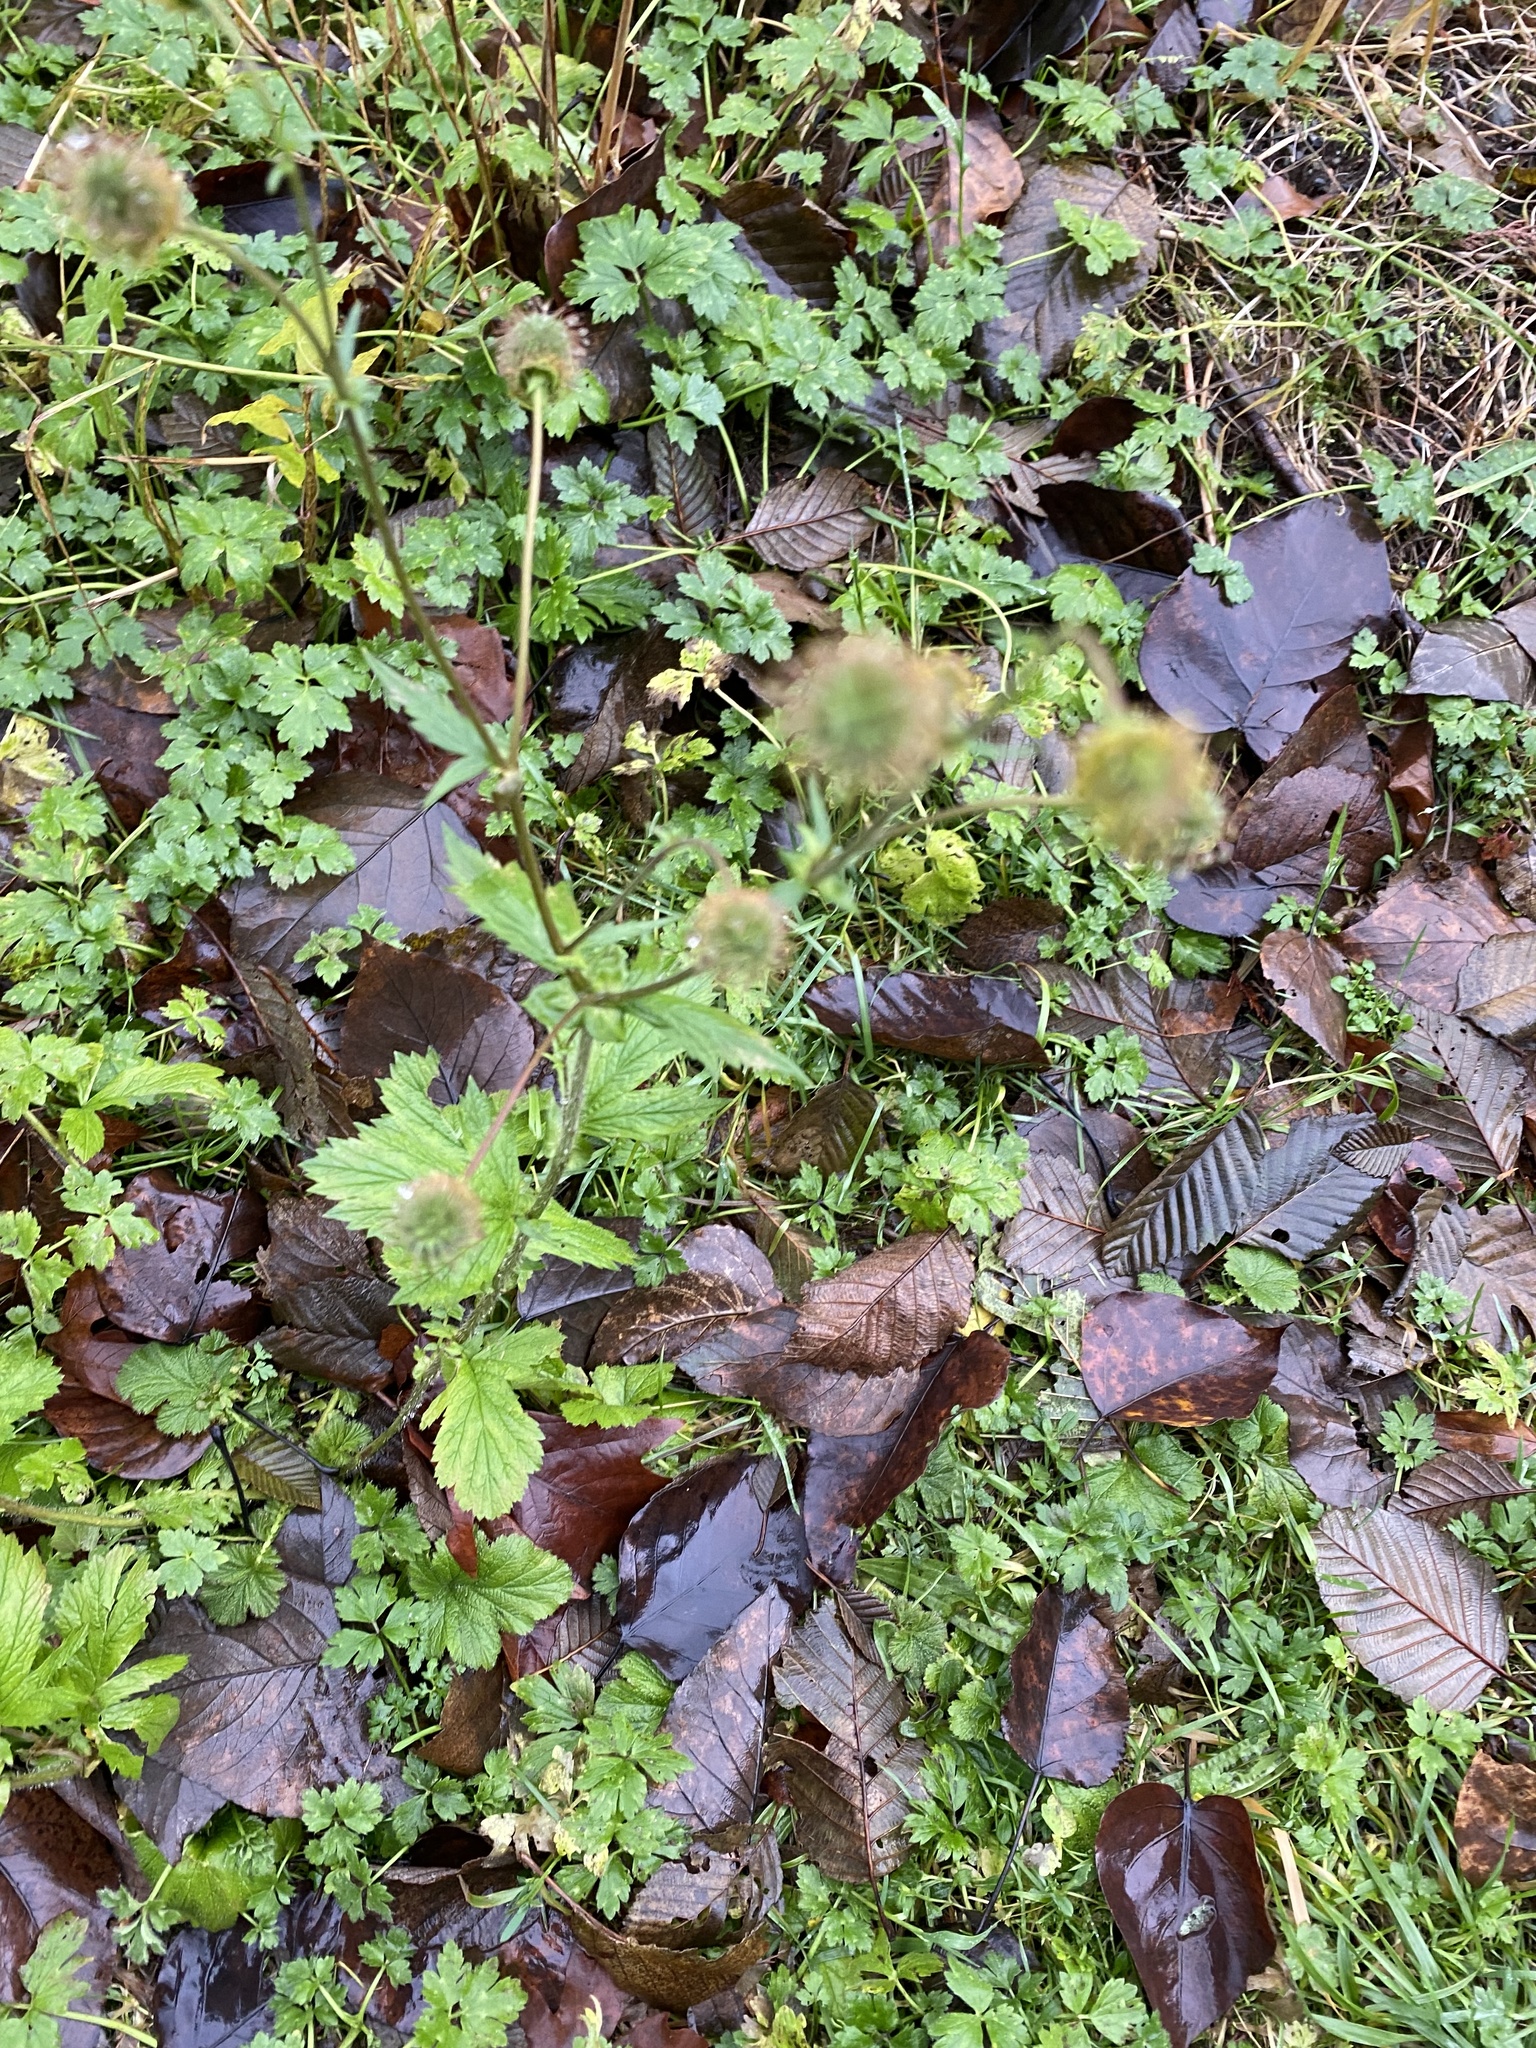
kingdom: Plantae
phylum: Tracheophyta
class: Magnoliopsida
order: Rosales
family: Rosaceae
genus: Geum
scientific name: Geum macrophyllum
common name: Large-leaved avens
